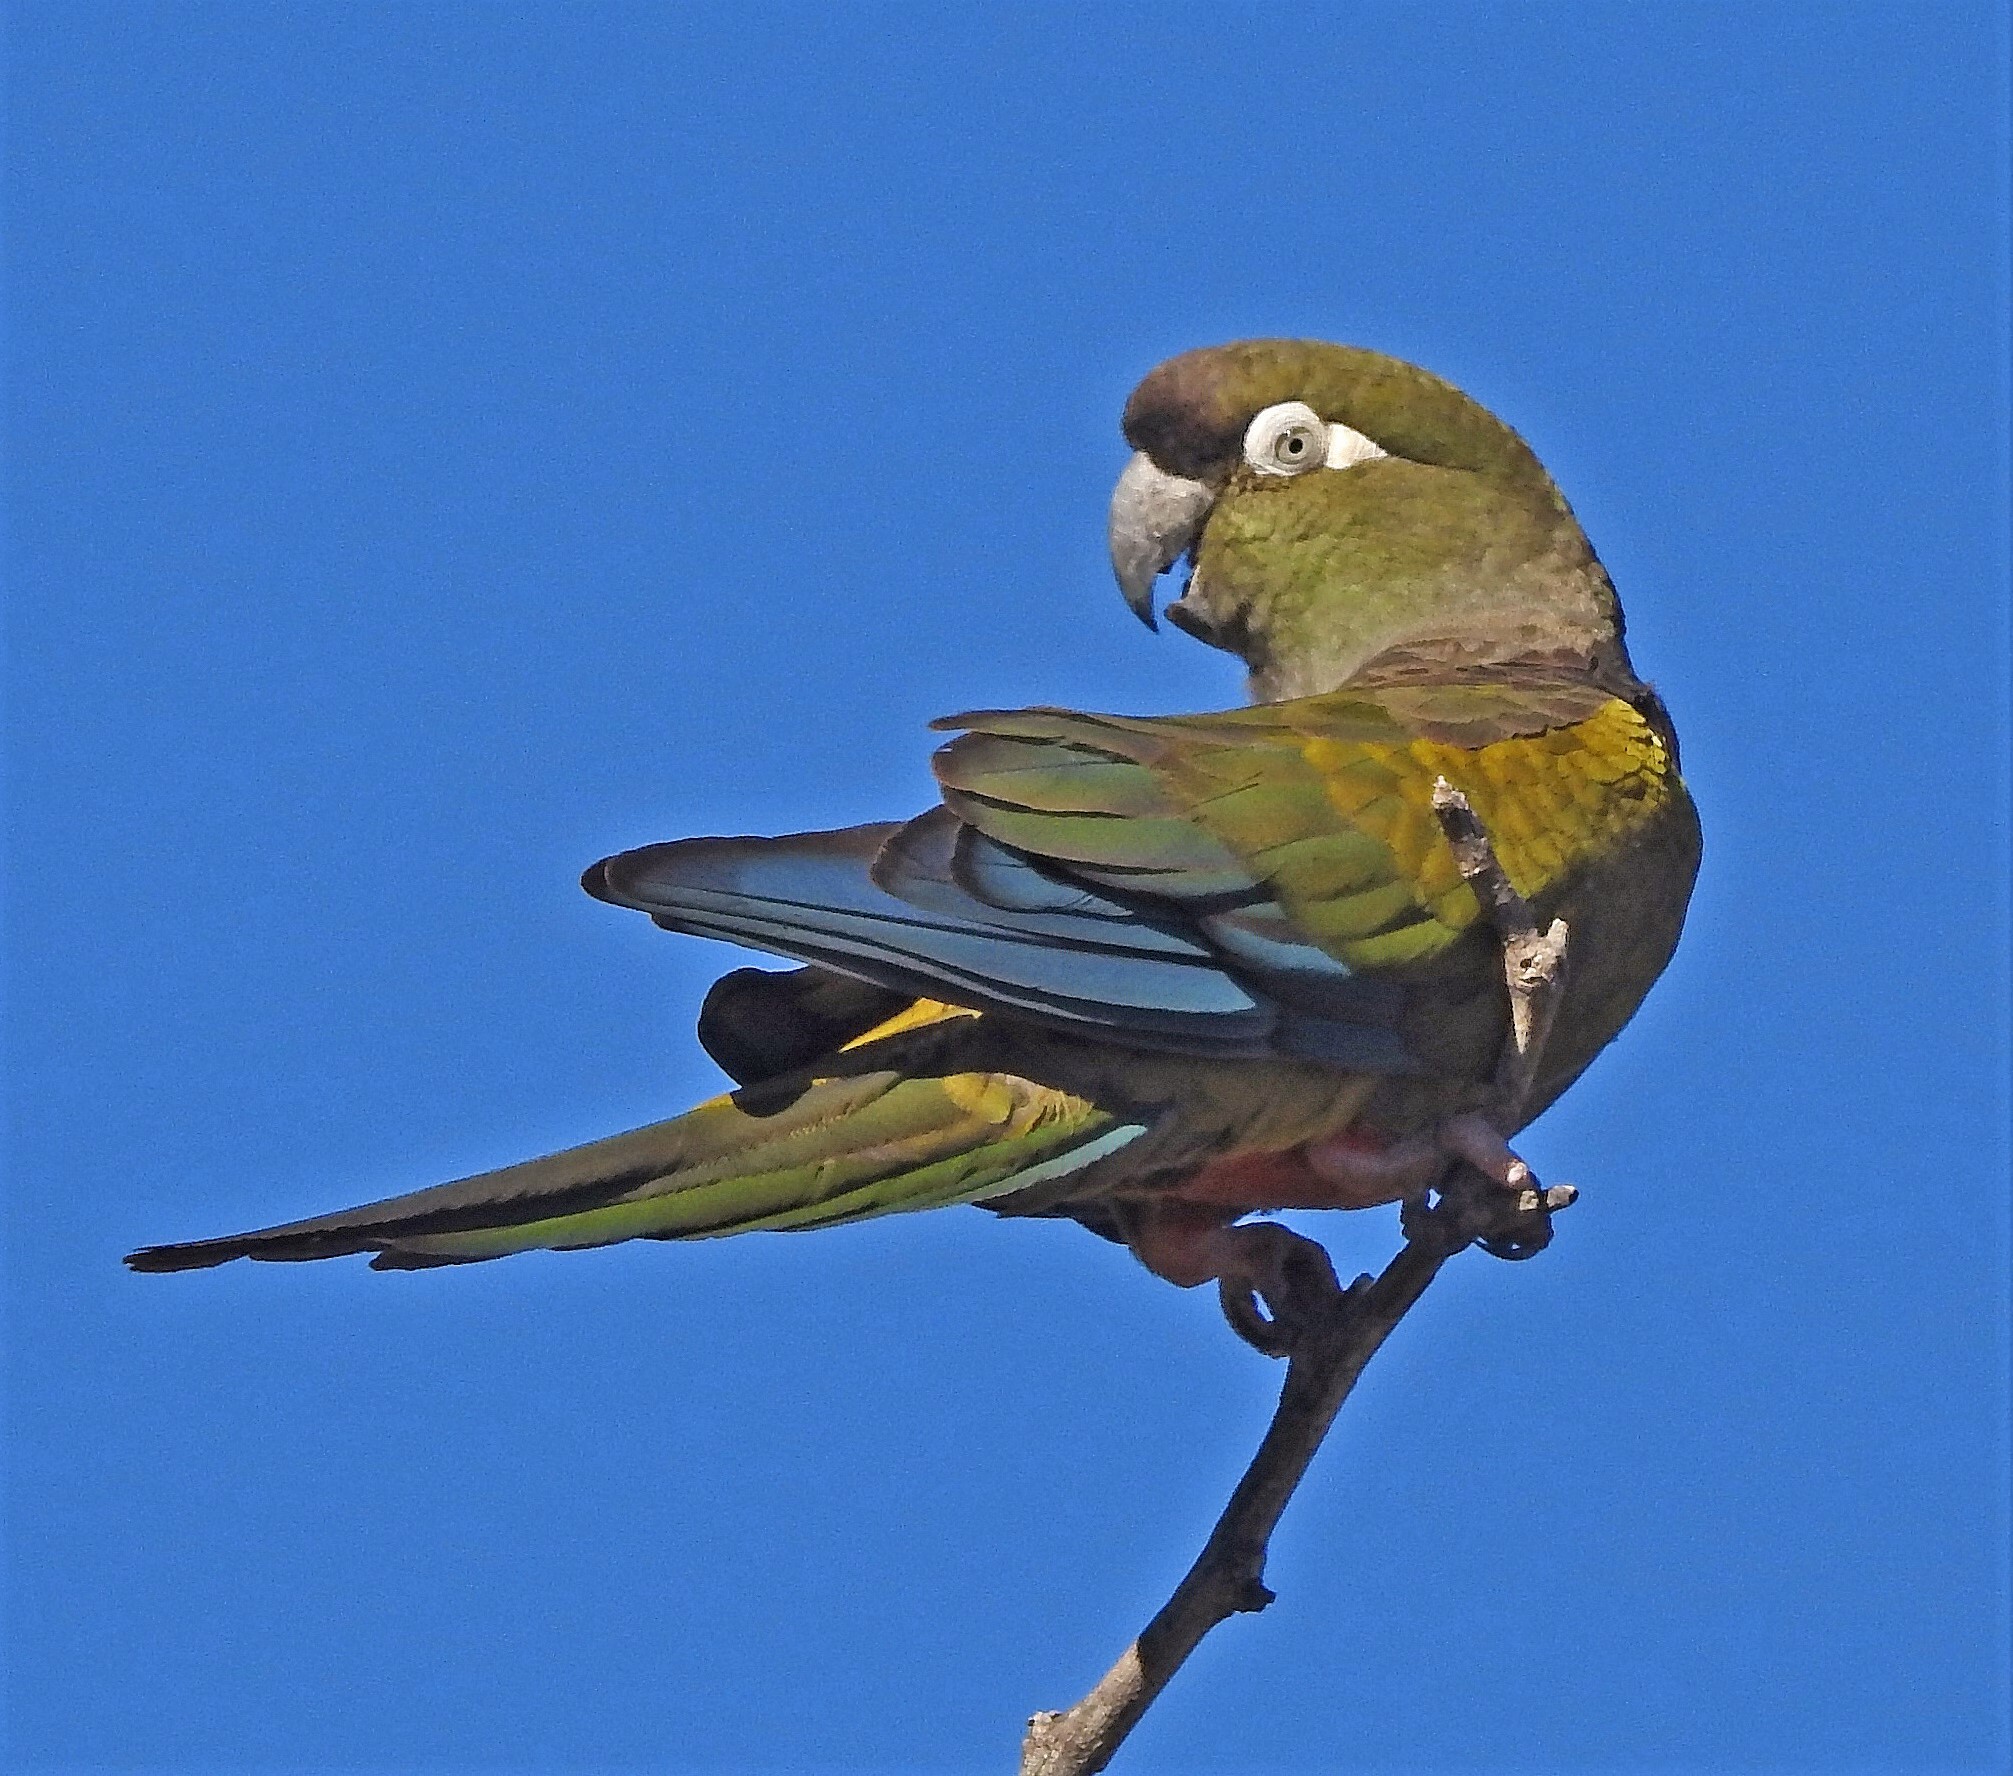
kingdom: Animalia
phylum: Chordata
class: Aves
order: Psittaciformes
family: Psittacidae
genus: Cyanoliseus
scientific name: Cyanoliseus patagonus
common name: Burrowing parrot
